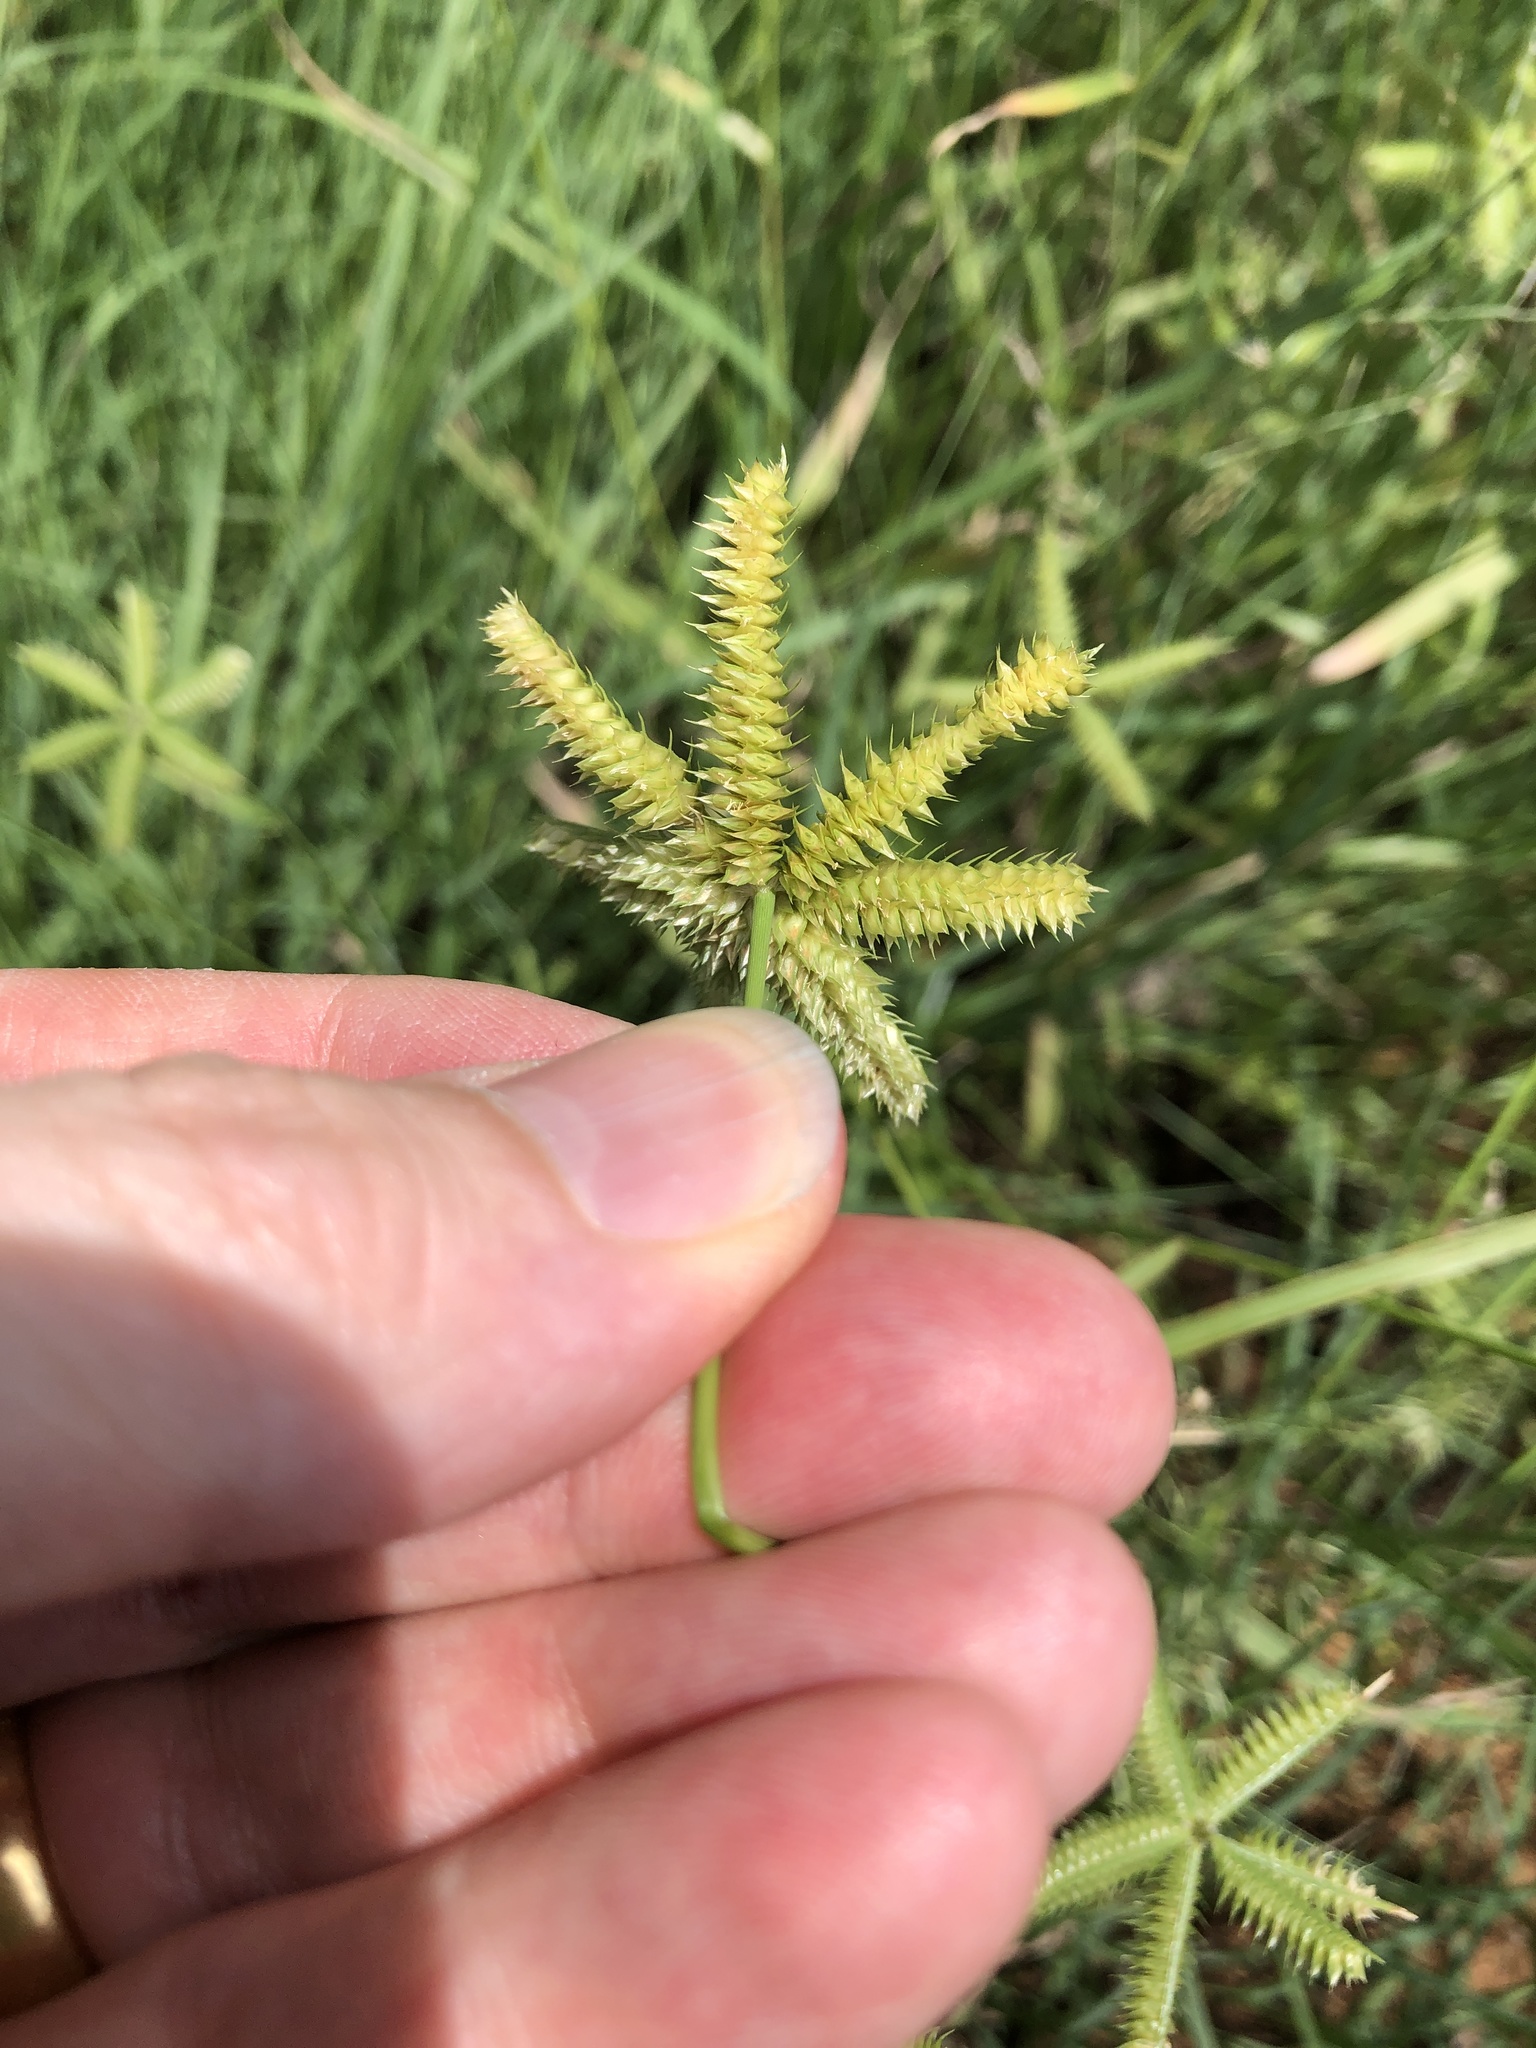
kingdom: Plantae
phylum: Tracheophyta
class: Liliopsida
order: Poales
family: Poaceae
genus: Dactyloctenium
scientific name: Dactyloctenium aegyptium
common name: Egyptian grass
